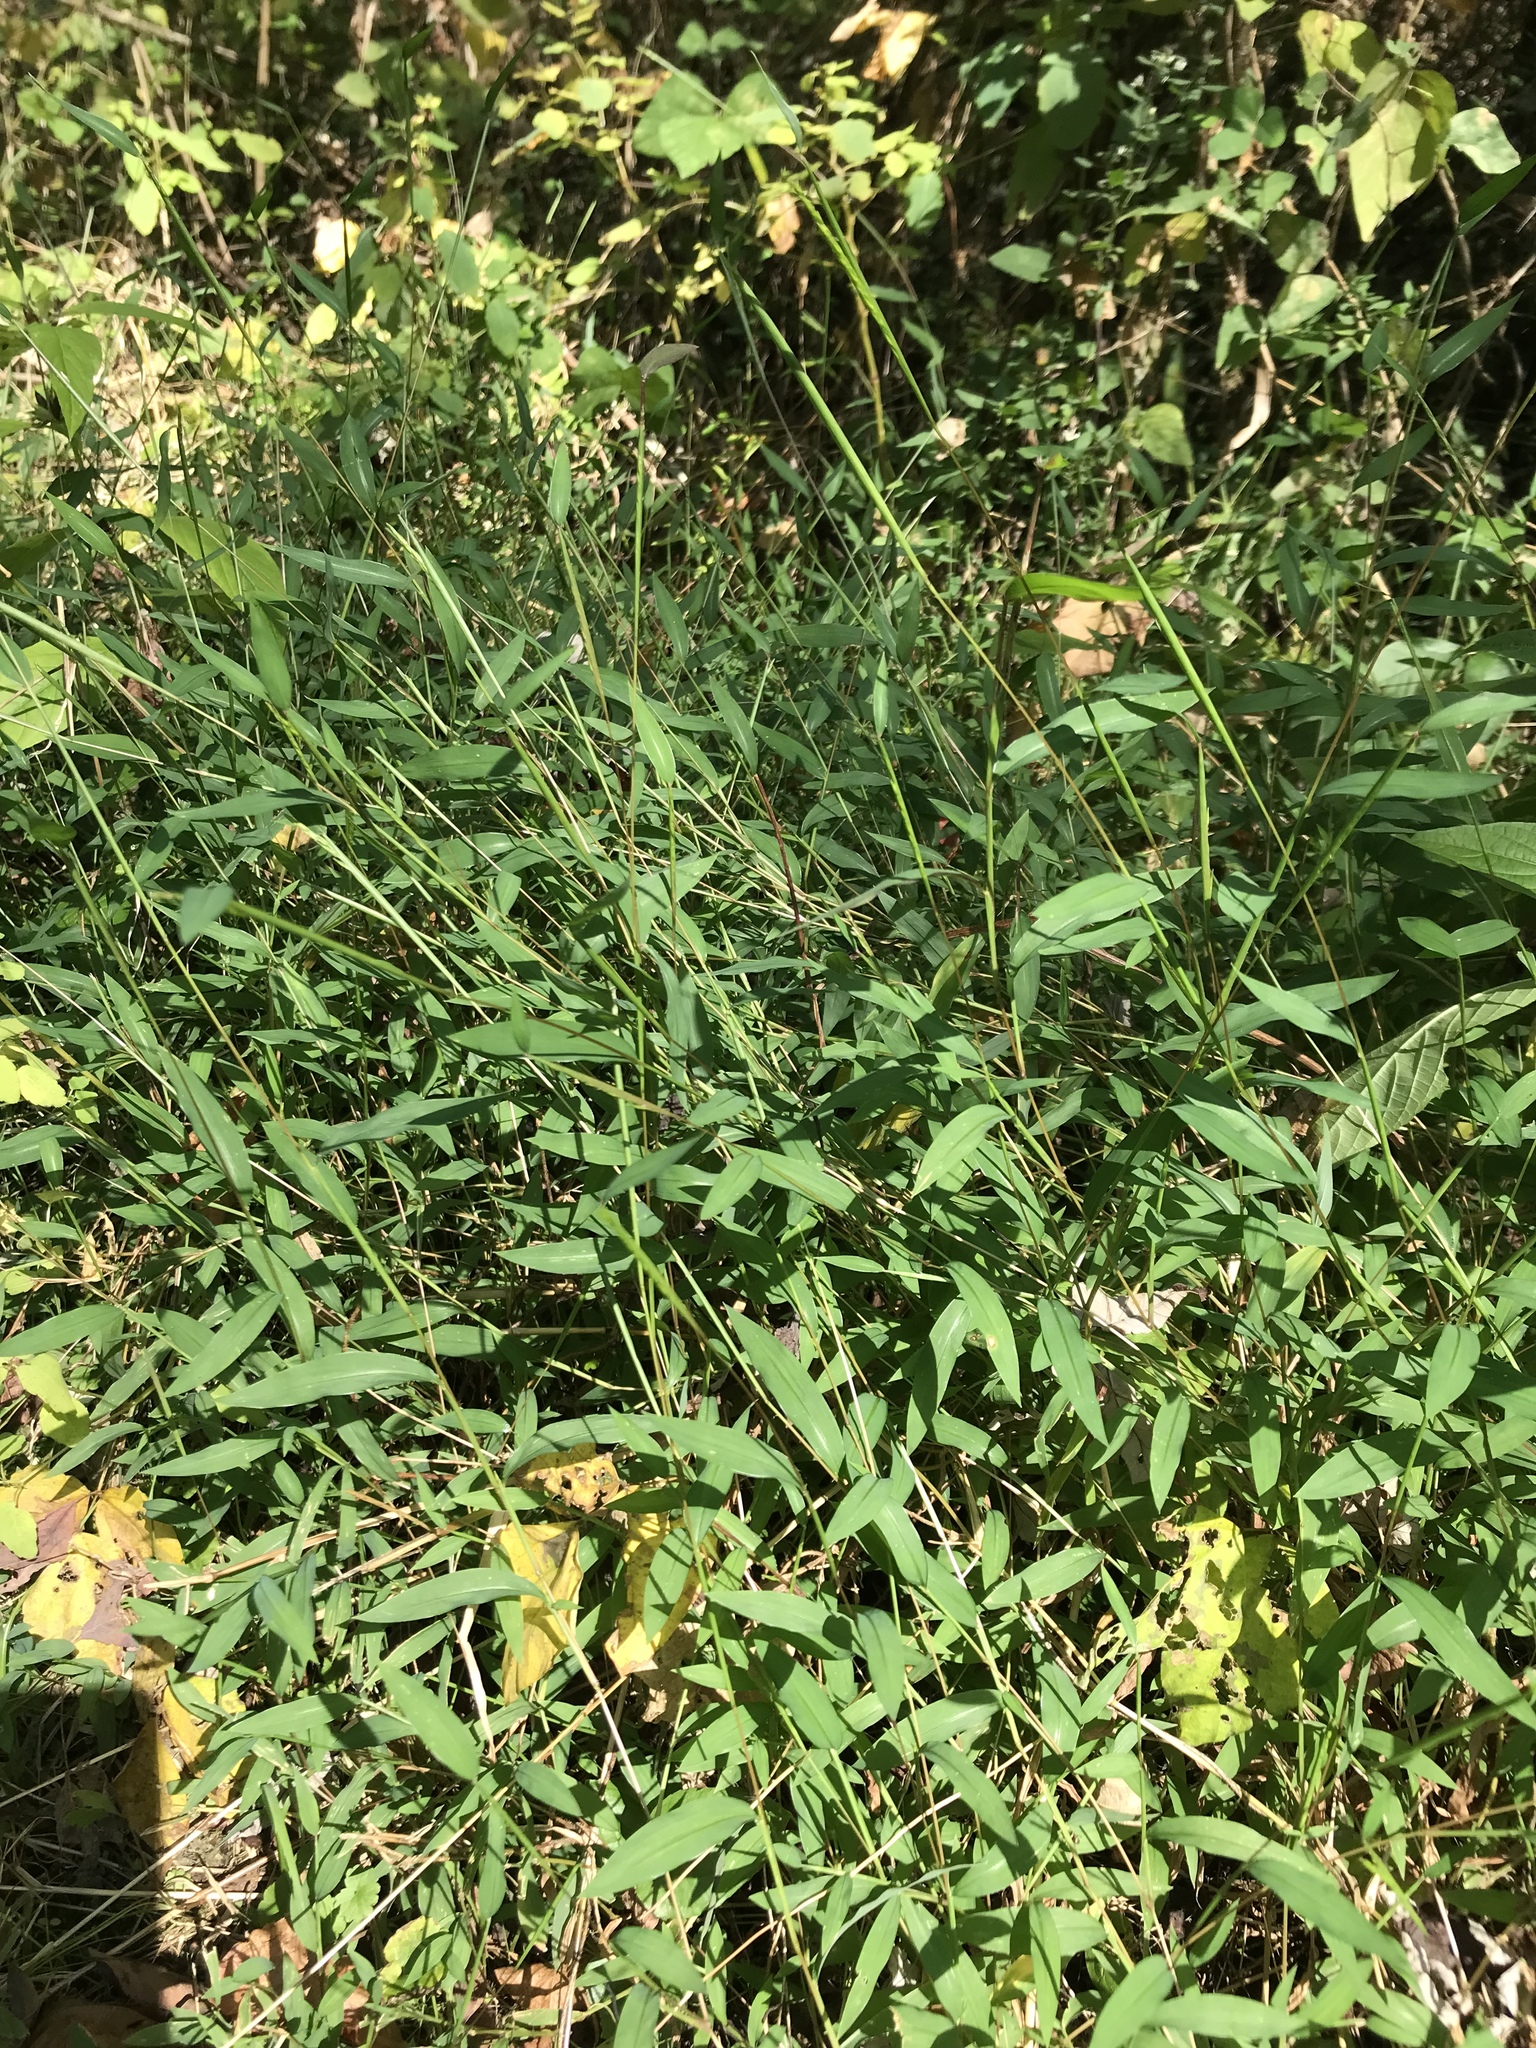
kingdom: Plantae
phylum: Tracheophyta
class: Liliopsida
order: Poales
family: Poaceae
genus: Microstegium
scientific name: Microstegium vimineum
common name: Japanese stiltgrass
